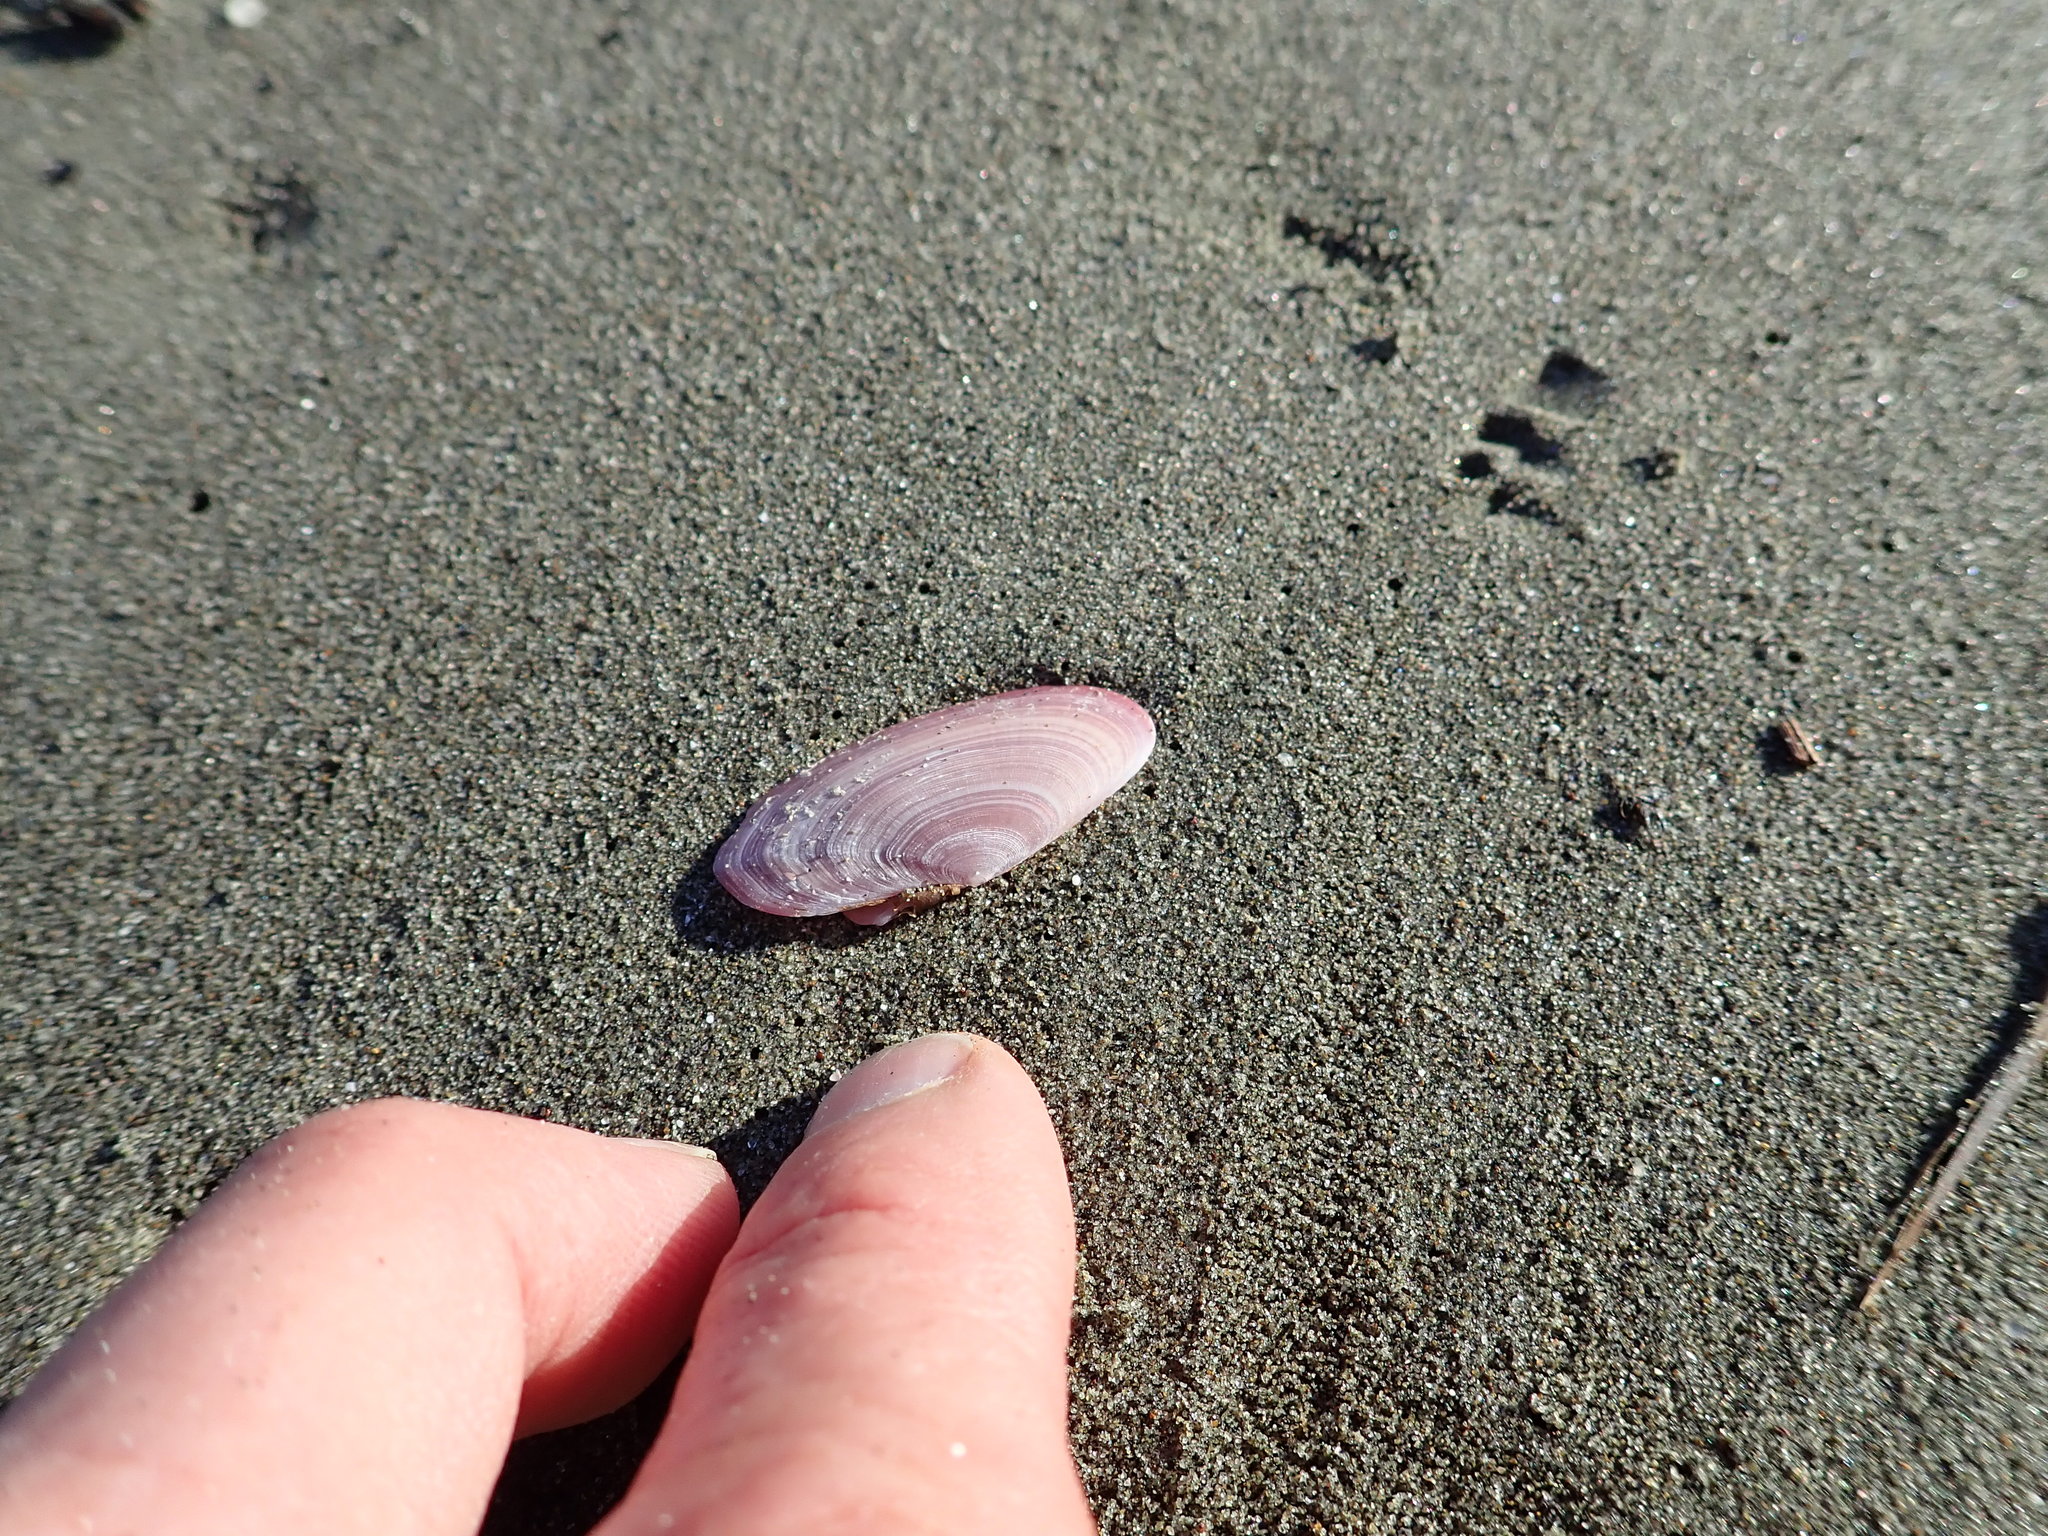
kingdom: Animalia
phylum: Mollusca
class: Bivalvia
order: Cardiida
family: Psammobiidae
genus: Gari
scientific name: Gari lineolata
